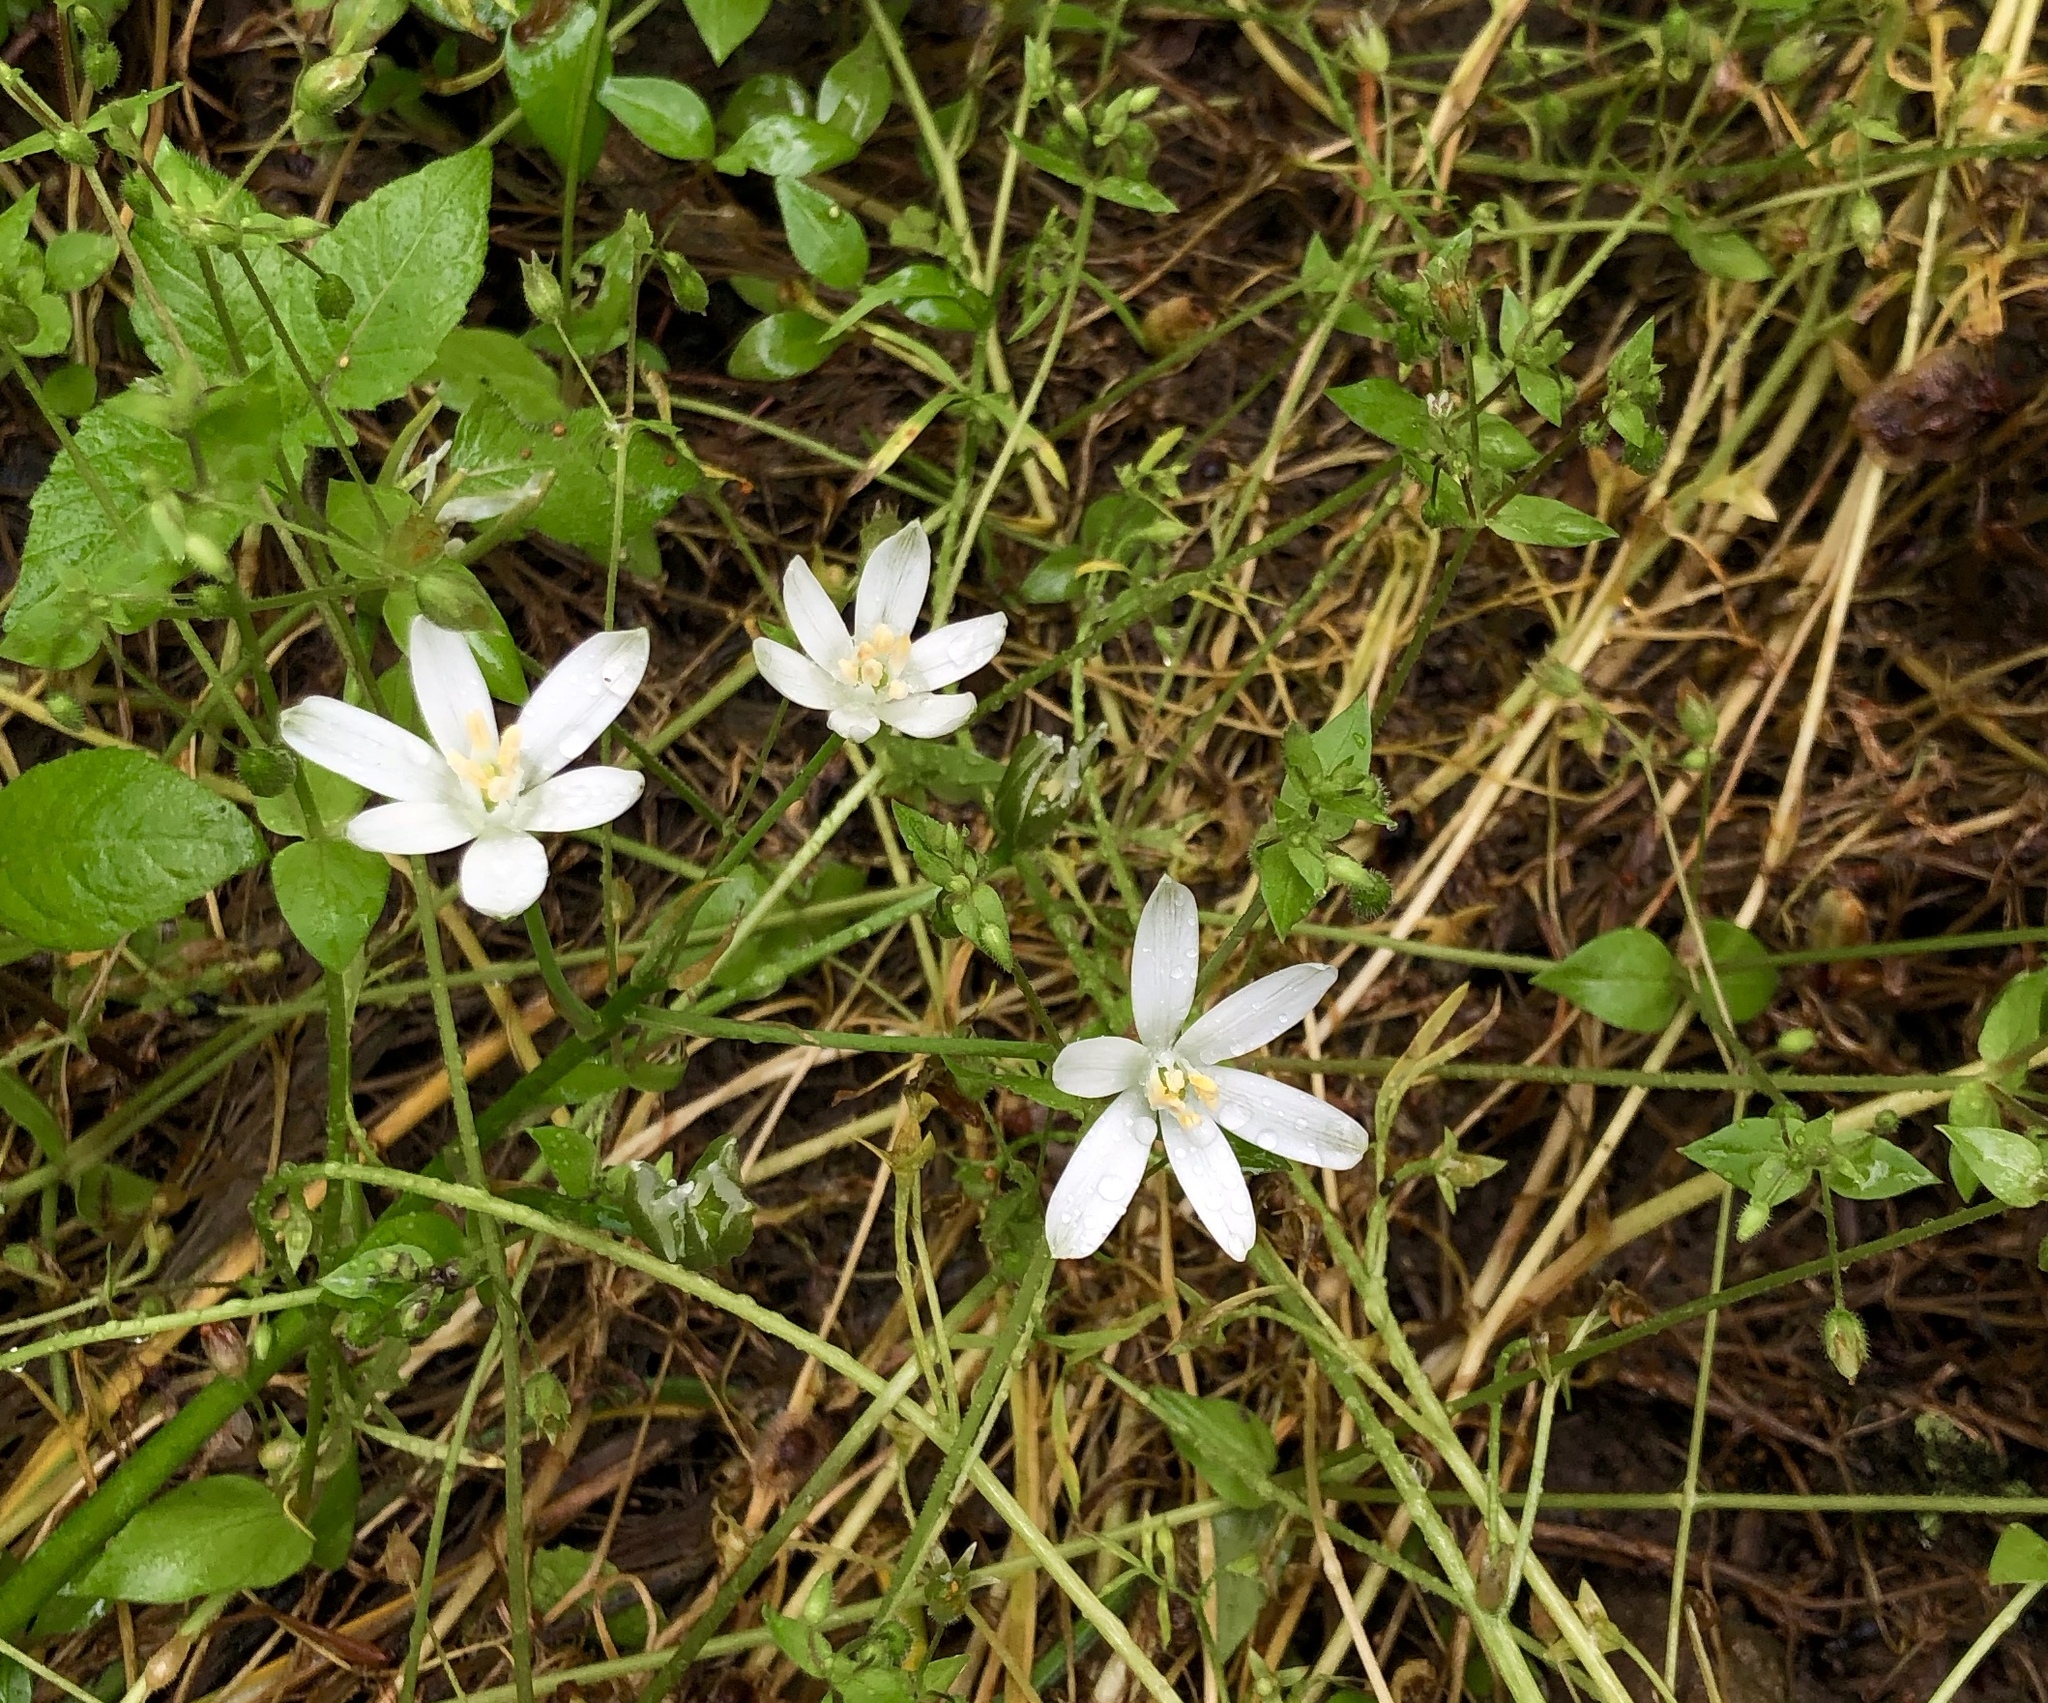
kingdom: Plantae
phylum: Tracheophyta
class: Liliopsida
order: Asparagales
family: Asparagaceae
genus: Ornithogalum
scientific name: Ornithogalum umbellatum
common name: Garden star-of-bethlehem
